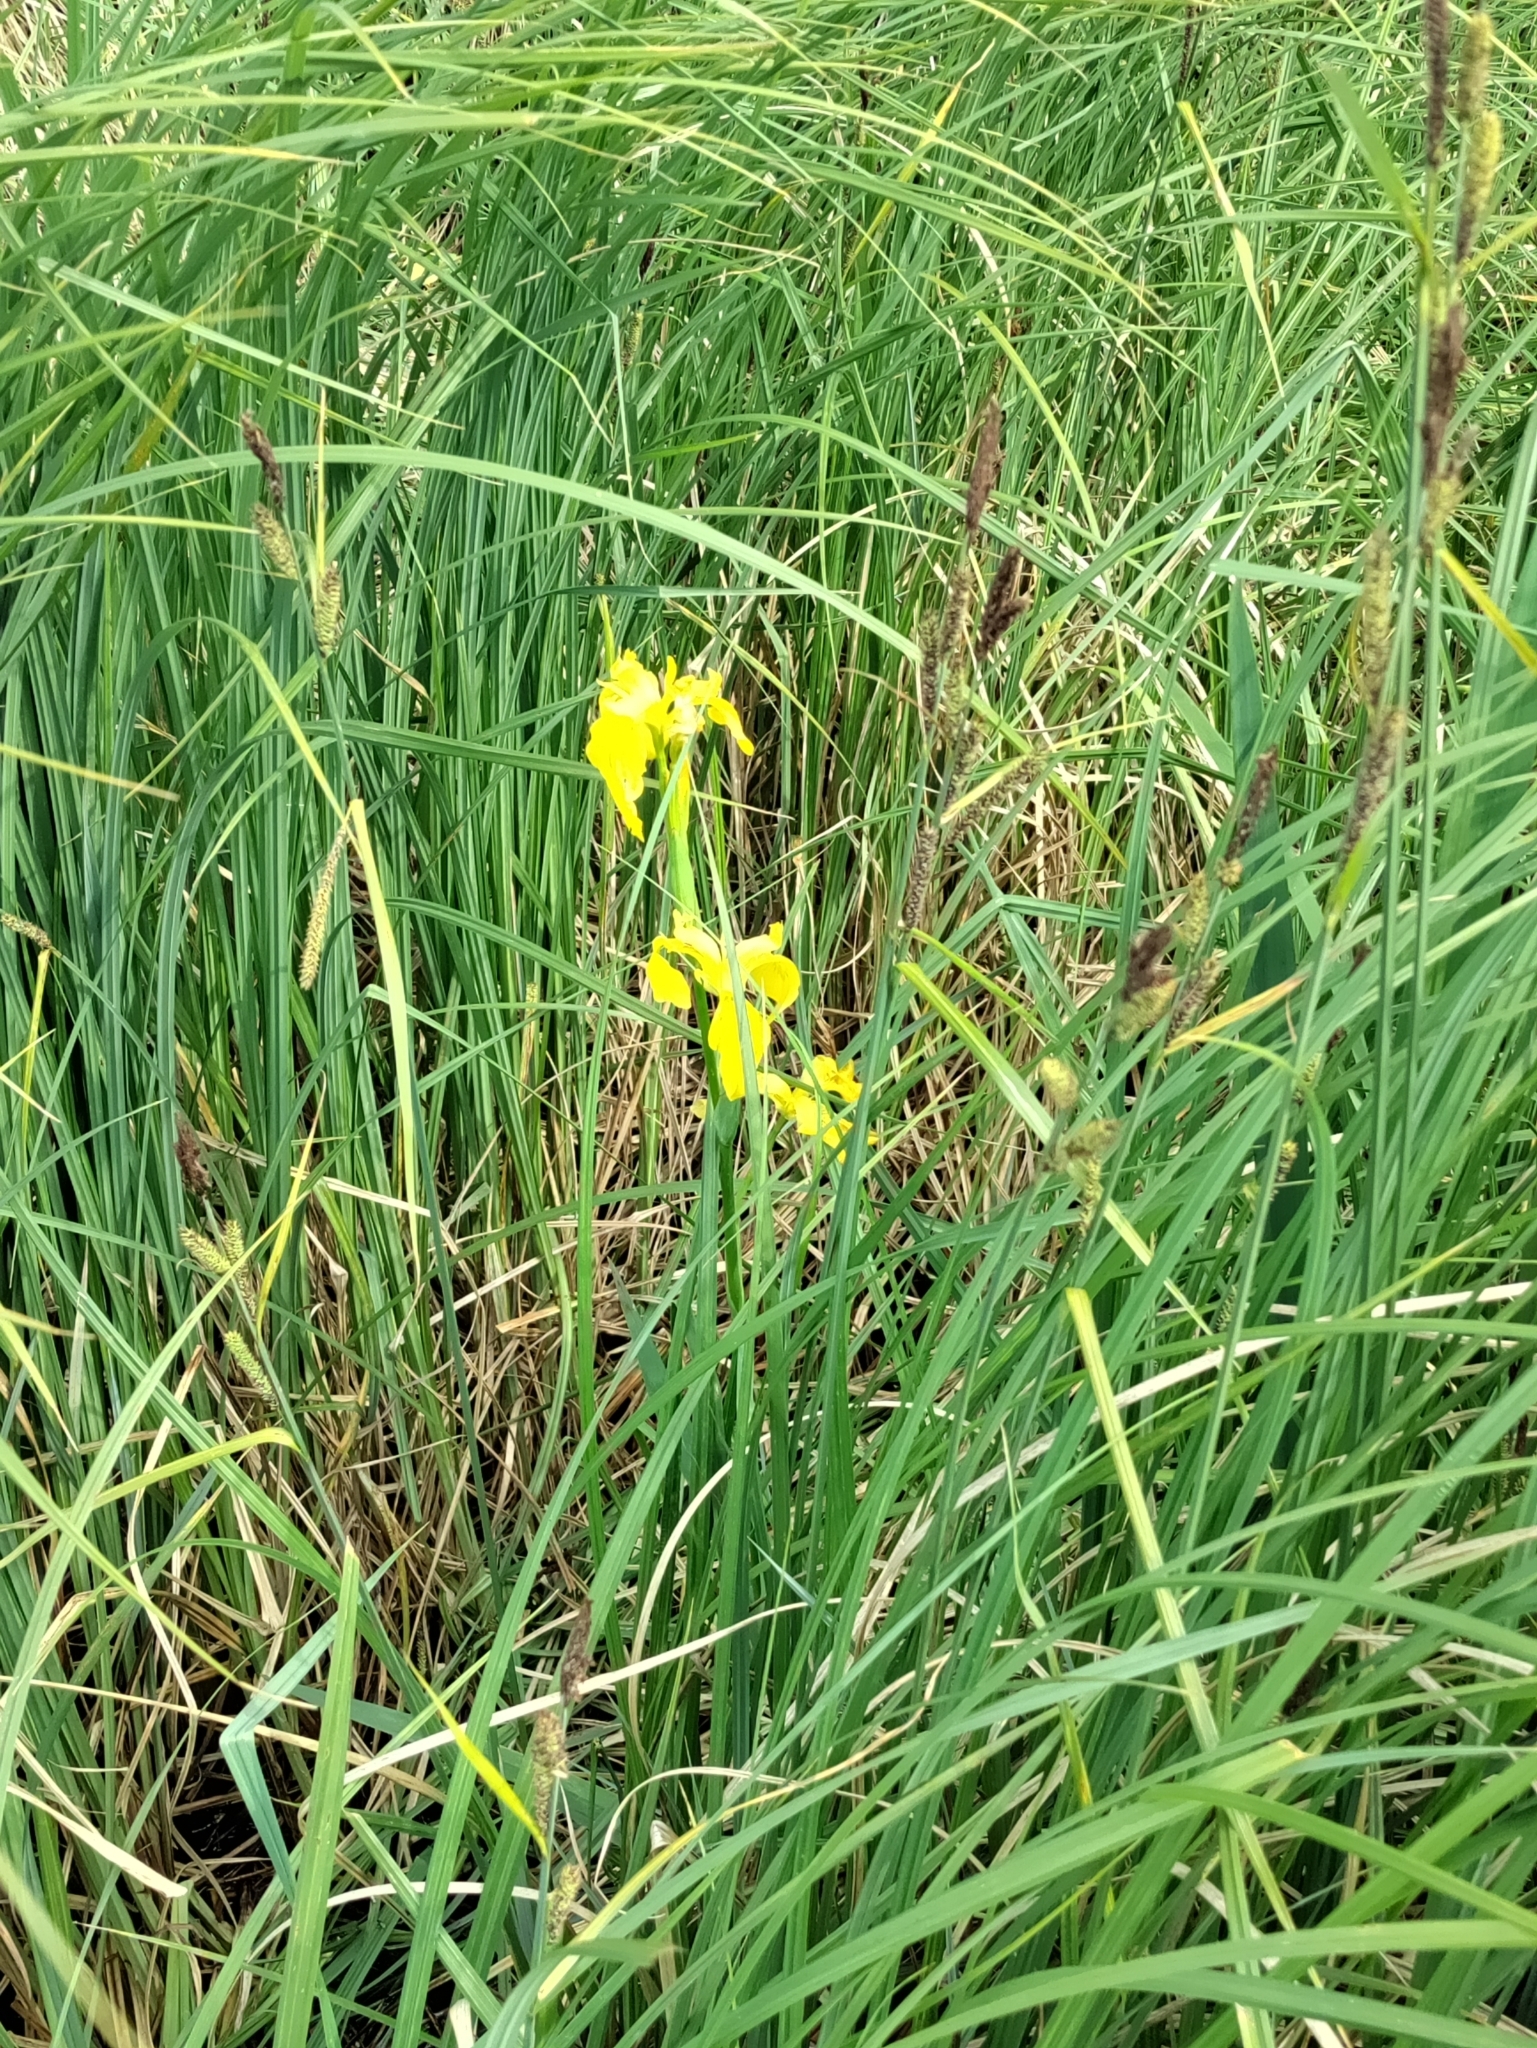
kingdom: Plantae
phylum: Tracheophyta
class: Liliopsida
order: Asparagales
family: Iridaceae
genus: Iris
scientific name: Iris pseudacorus
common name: Yellow flag
